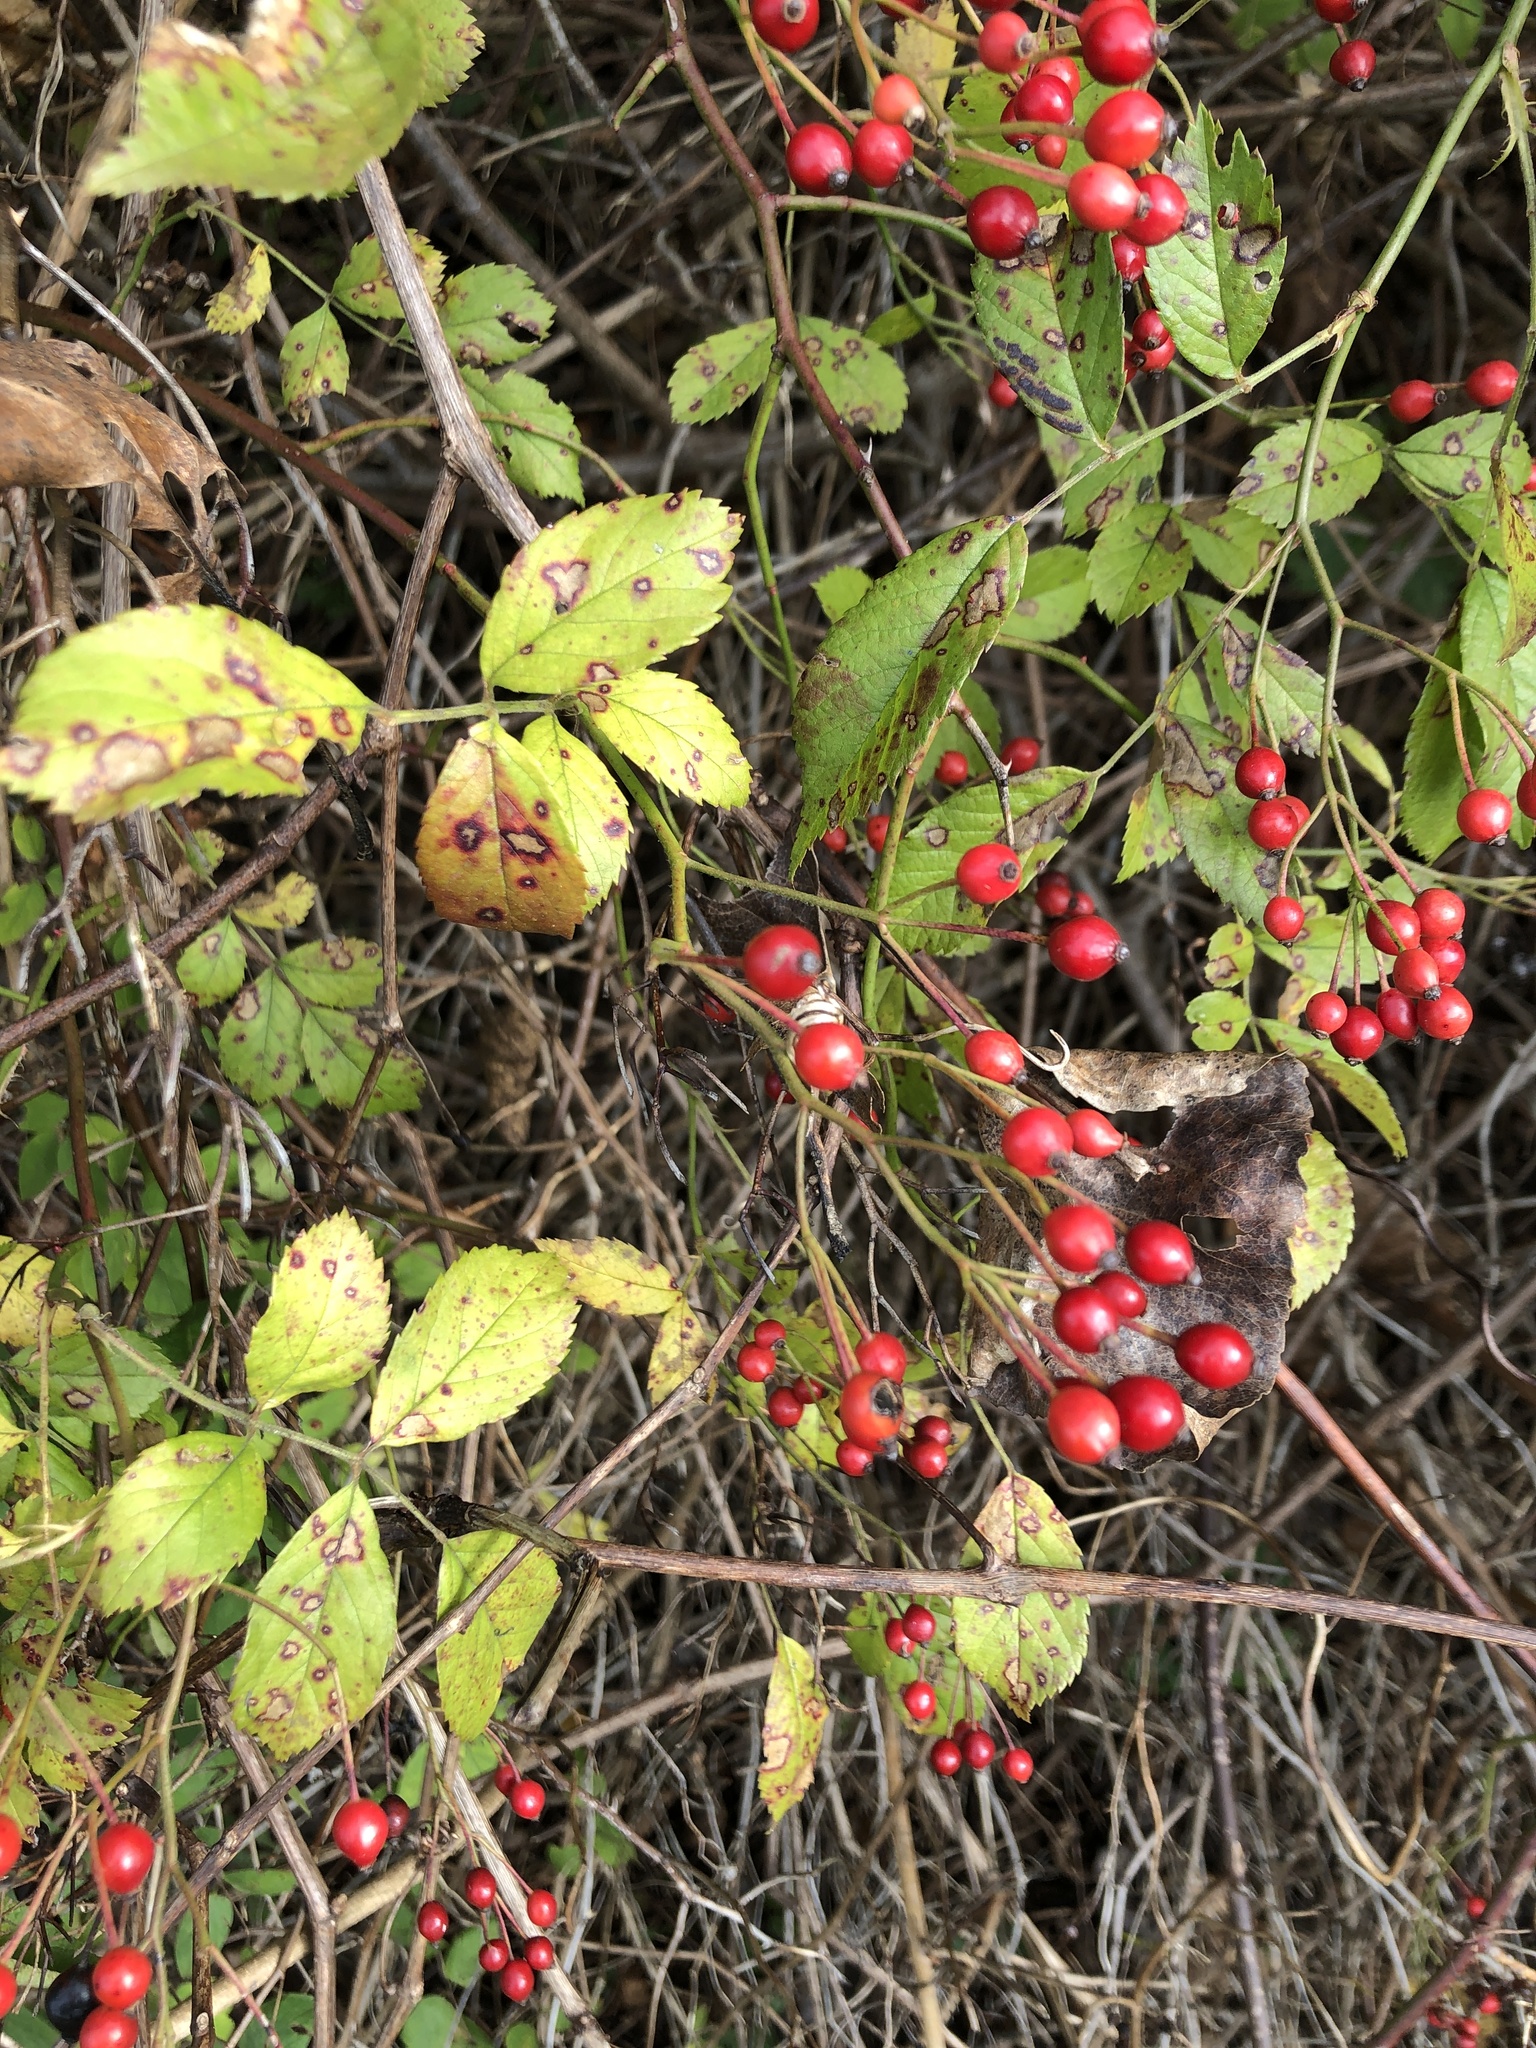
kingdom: Plantae
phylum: Tracheophyta
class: Magnoliopsida
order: Rosales
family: Rosaceae
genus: Rosa
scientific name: Rosa multiflora
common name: Multiflora rose
